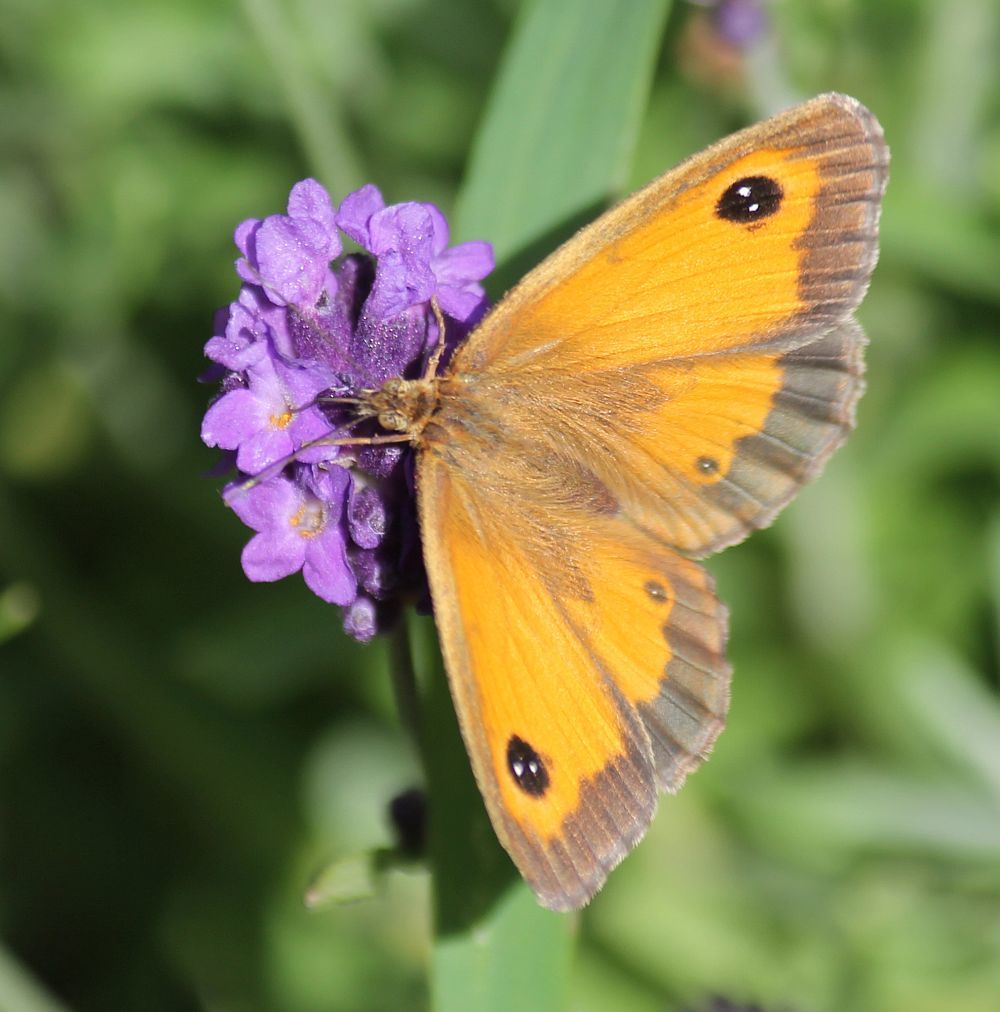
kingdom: Animalia
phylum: Arthropoda
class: Insecta
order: Lepidoptera
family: Nymphalidae
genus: Pyronia
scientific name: Pyronia tithonus
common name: Gatekeeper
